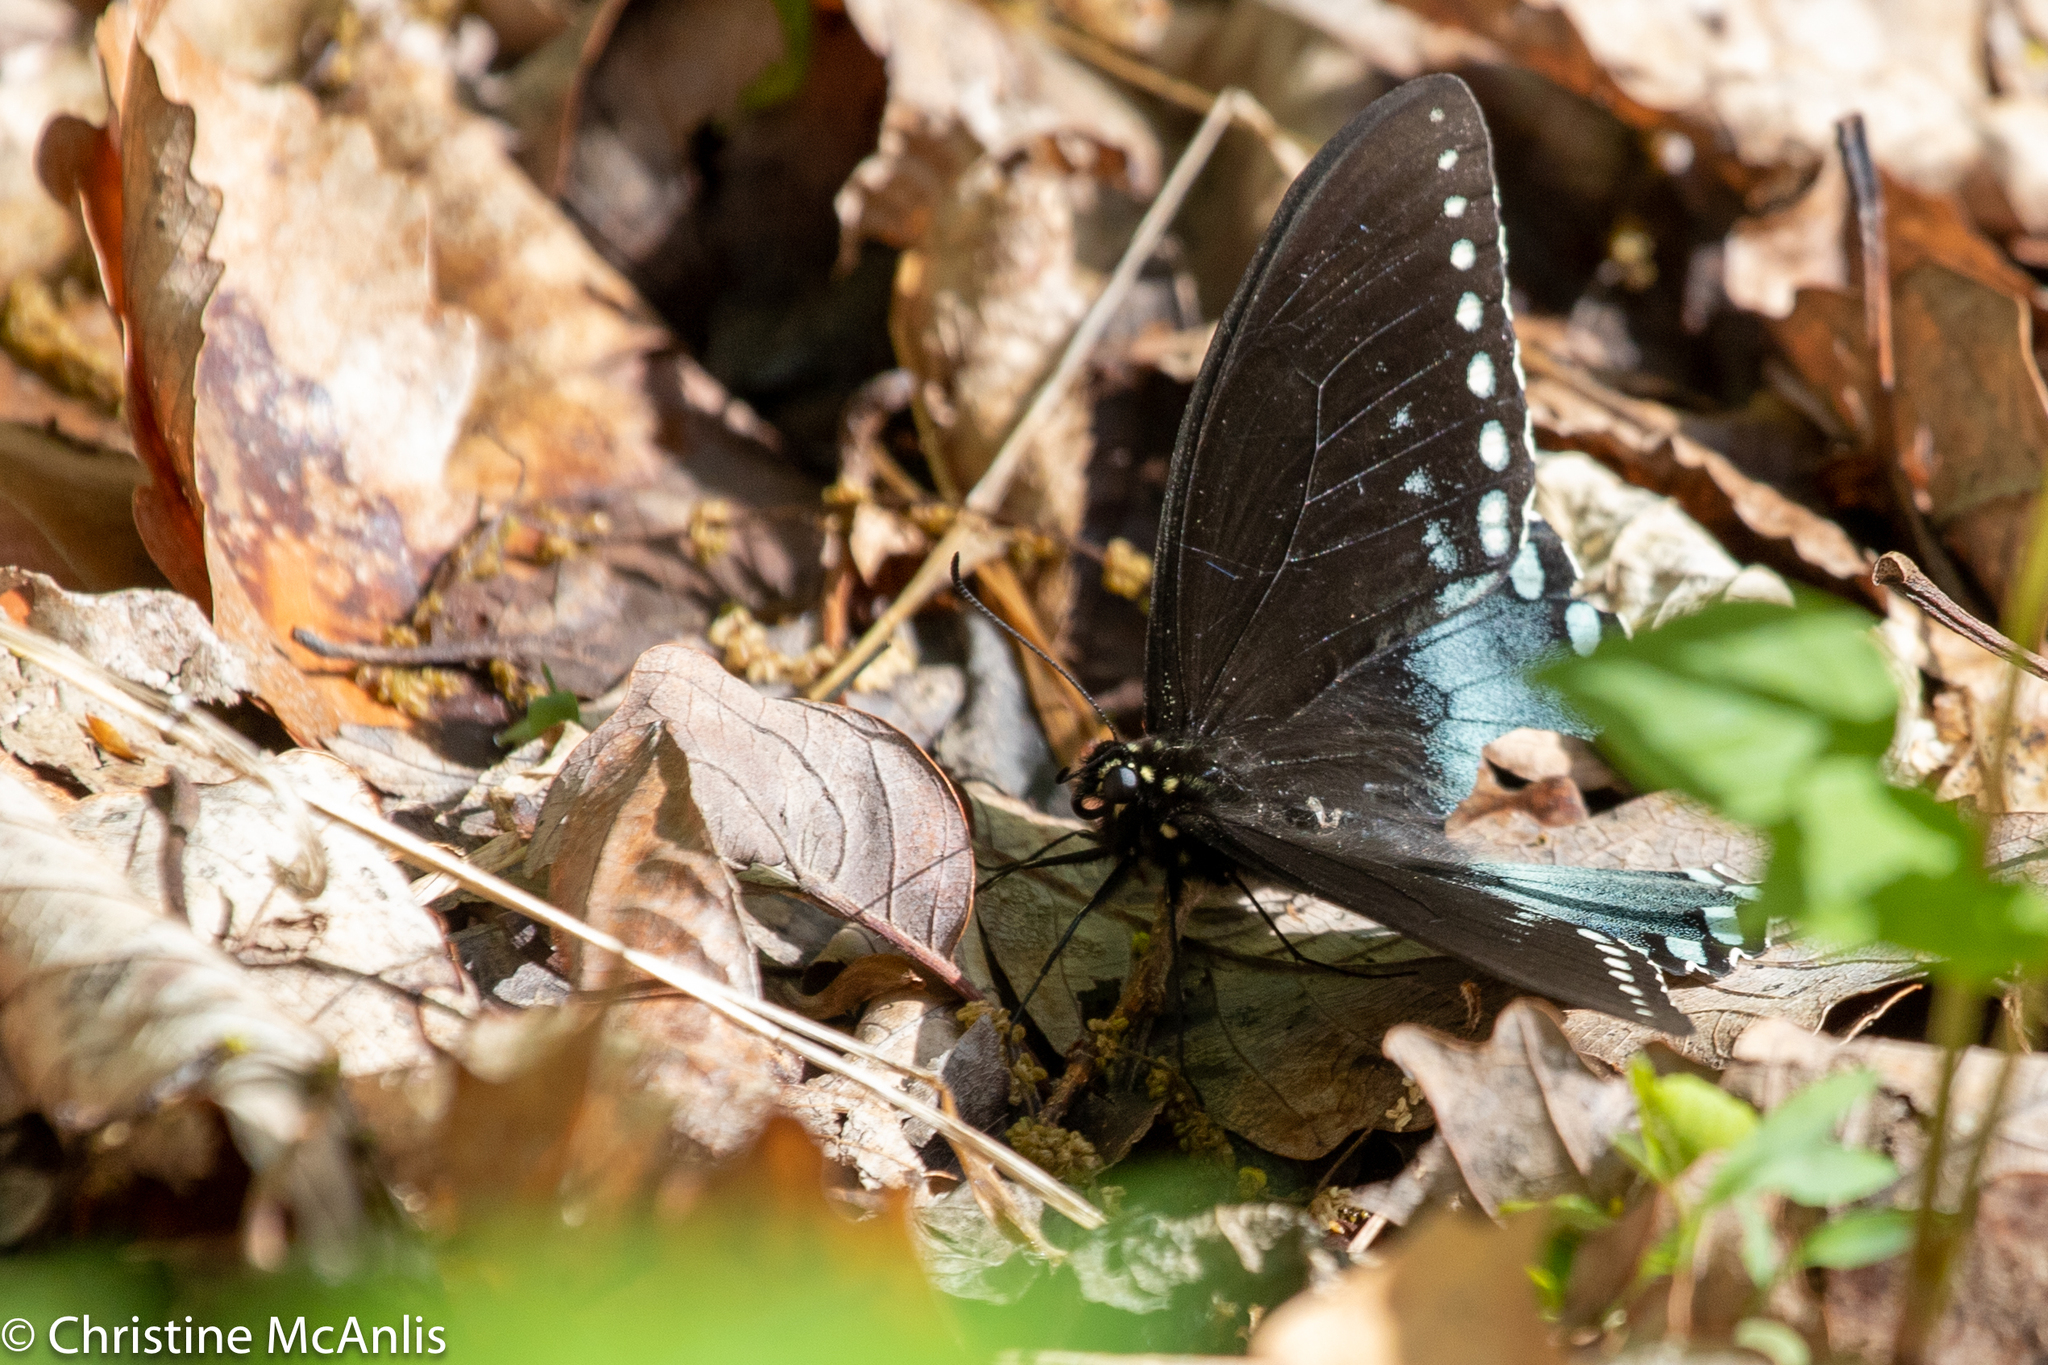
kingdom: Animalia
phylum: Arthropoda
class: Insecta
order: Lepidoptera
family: Papilionidae
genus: Papilio
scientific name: Papilio troilus
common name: Spicebush swallowtail
